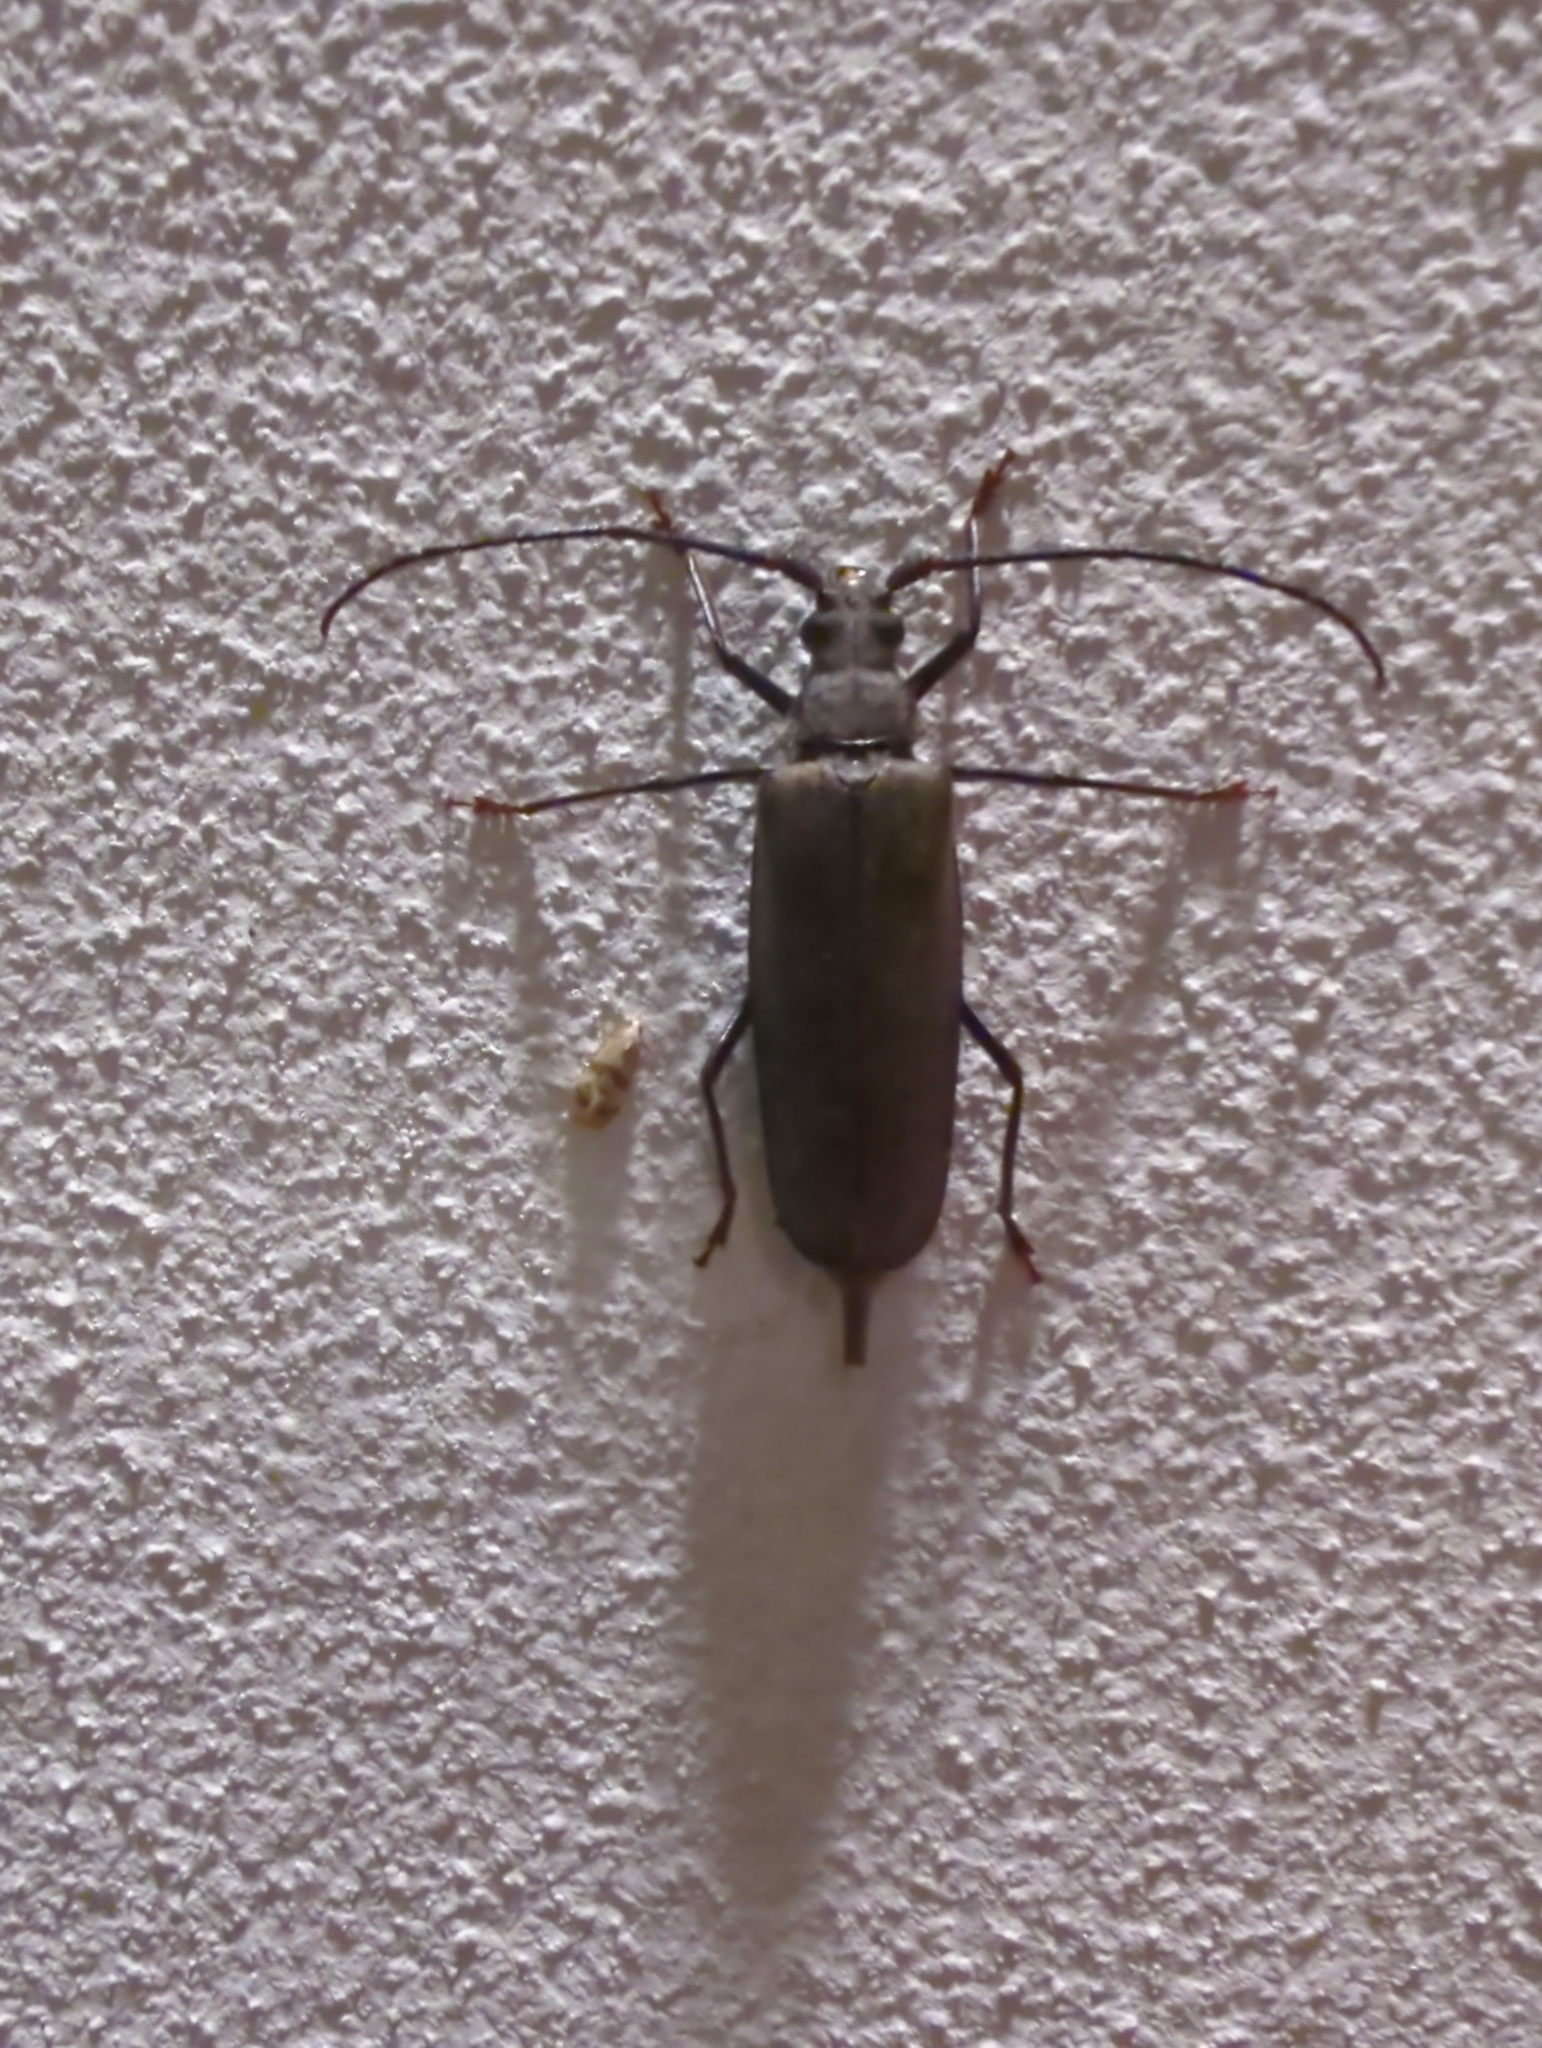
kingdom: Animalia
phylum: Arthropoda
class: Insecta
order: Coleoptera
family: Cerambycidae
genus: Aegosoma
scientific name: Aegosoma scabricorne
